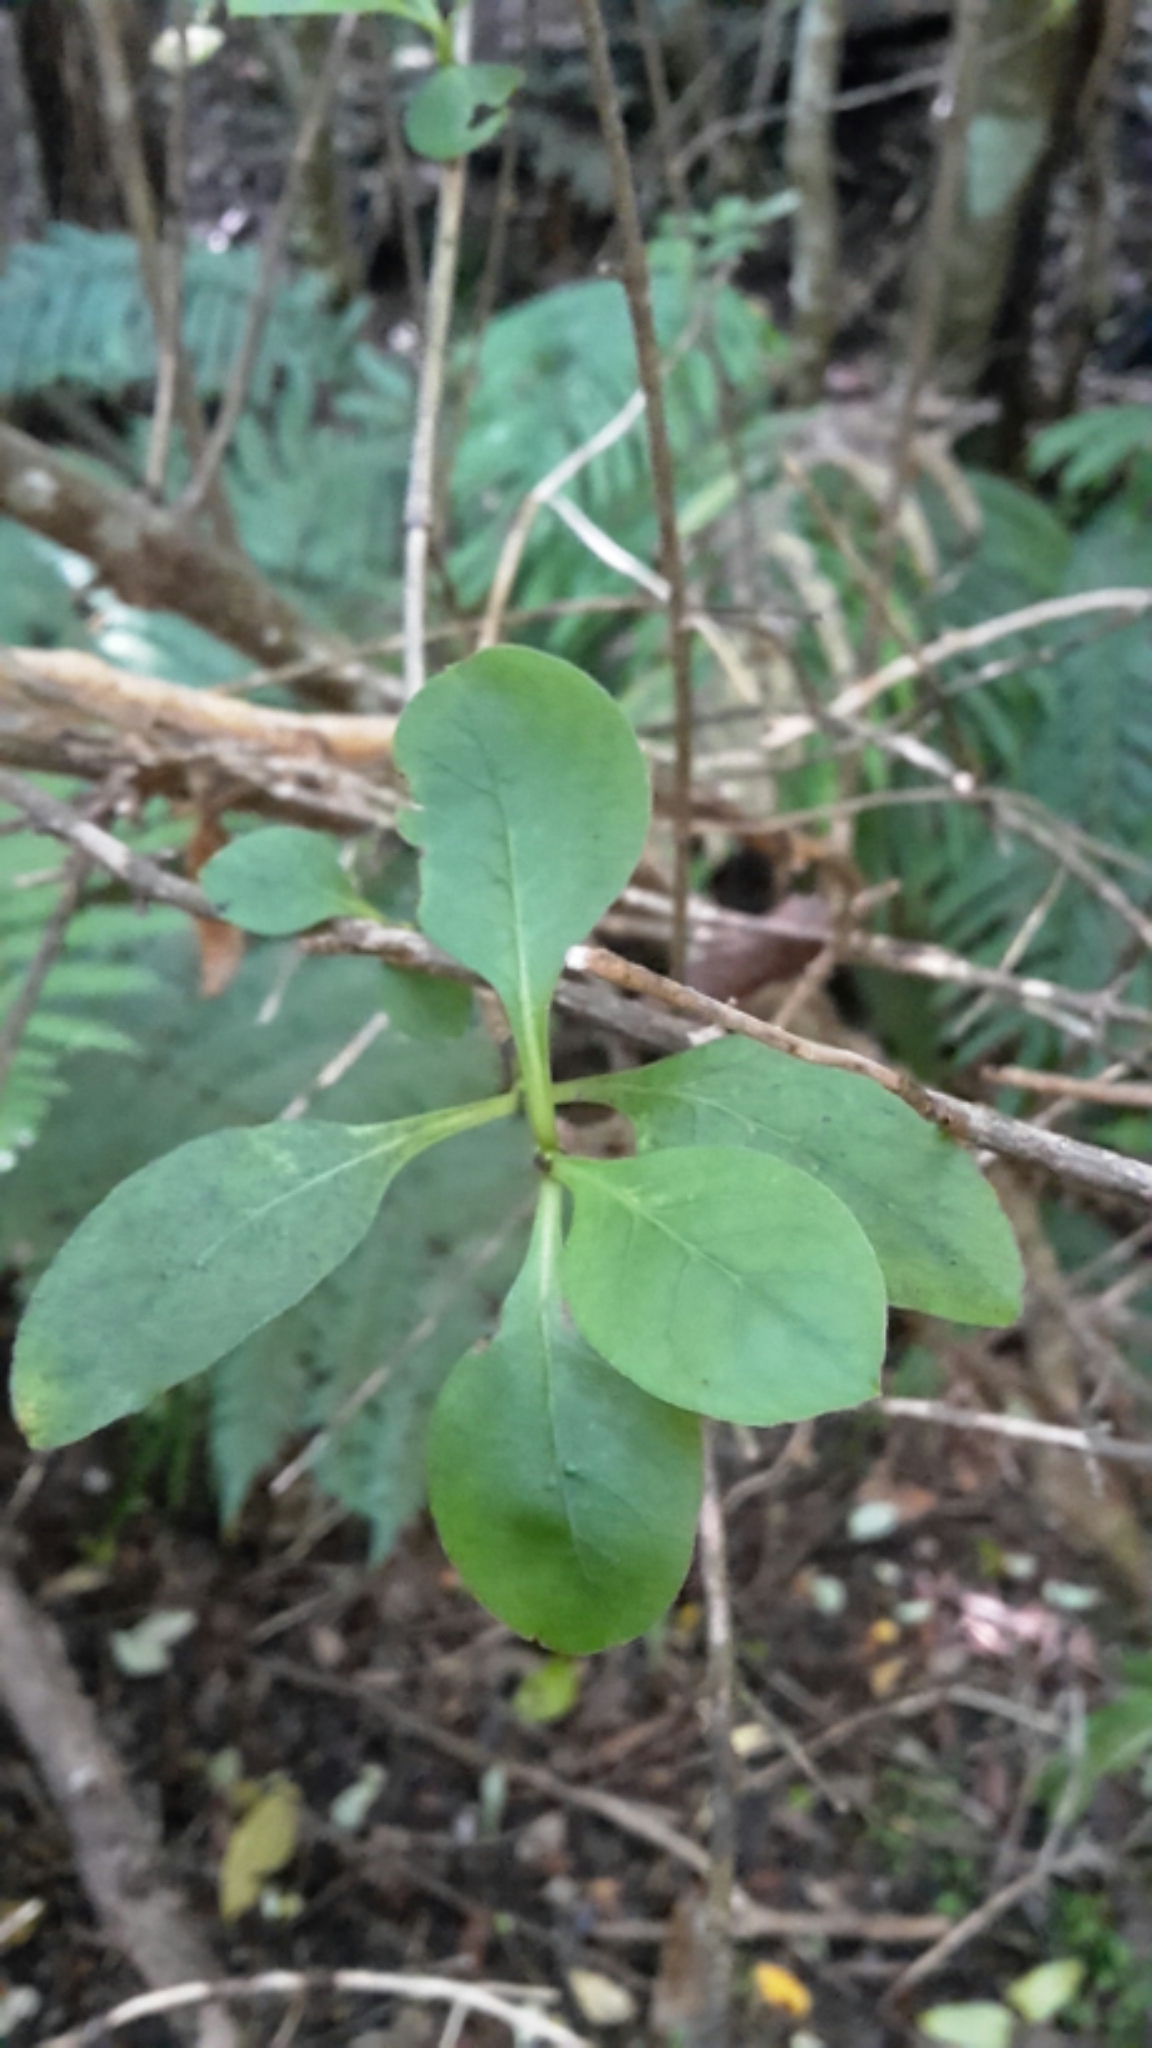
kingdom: Plantae
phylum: Tracheophyta
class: Magnoliopsida
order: Gentianales
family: Rubiaceae
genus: Coprosma
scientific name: Coprosma foetidissima
